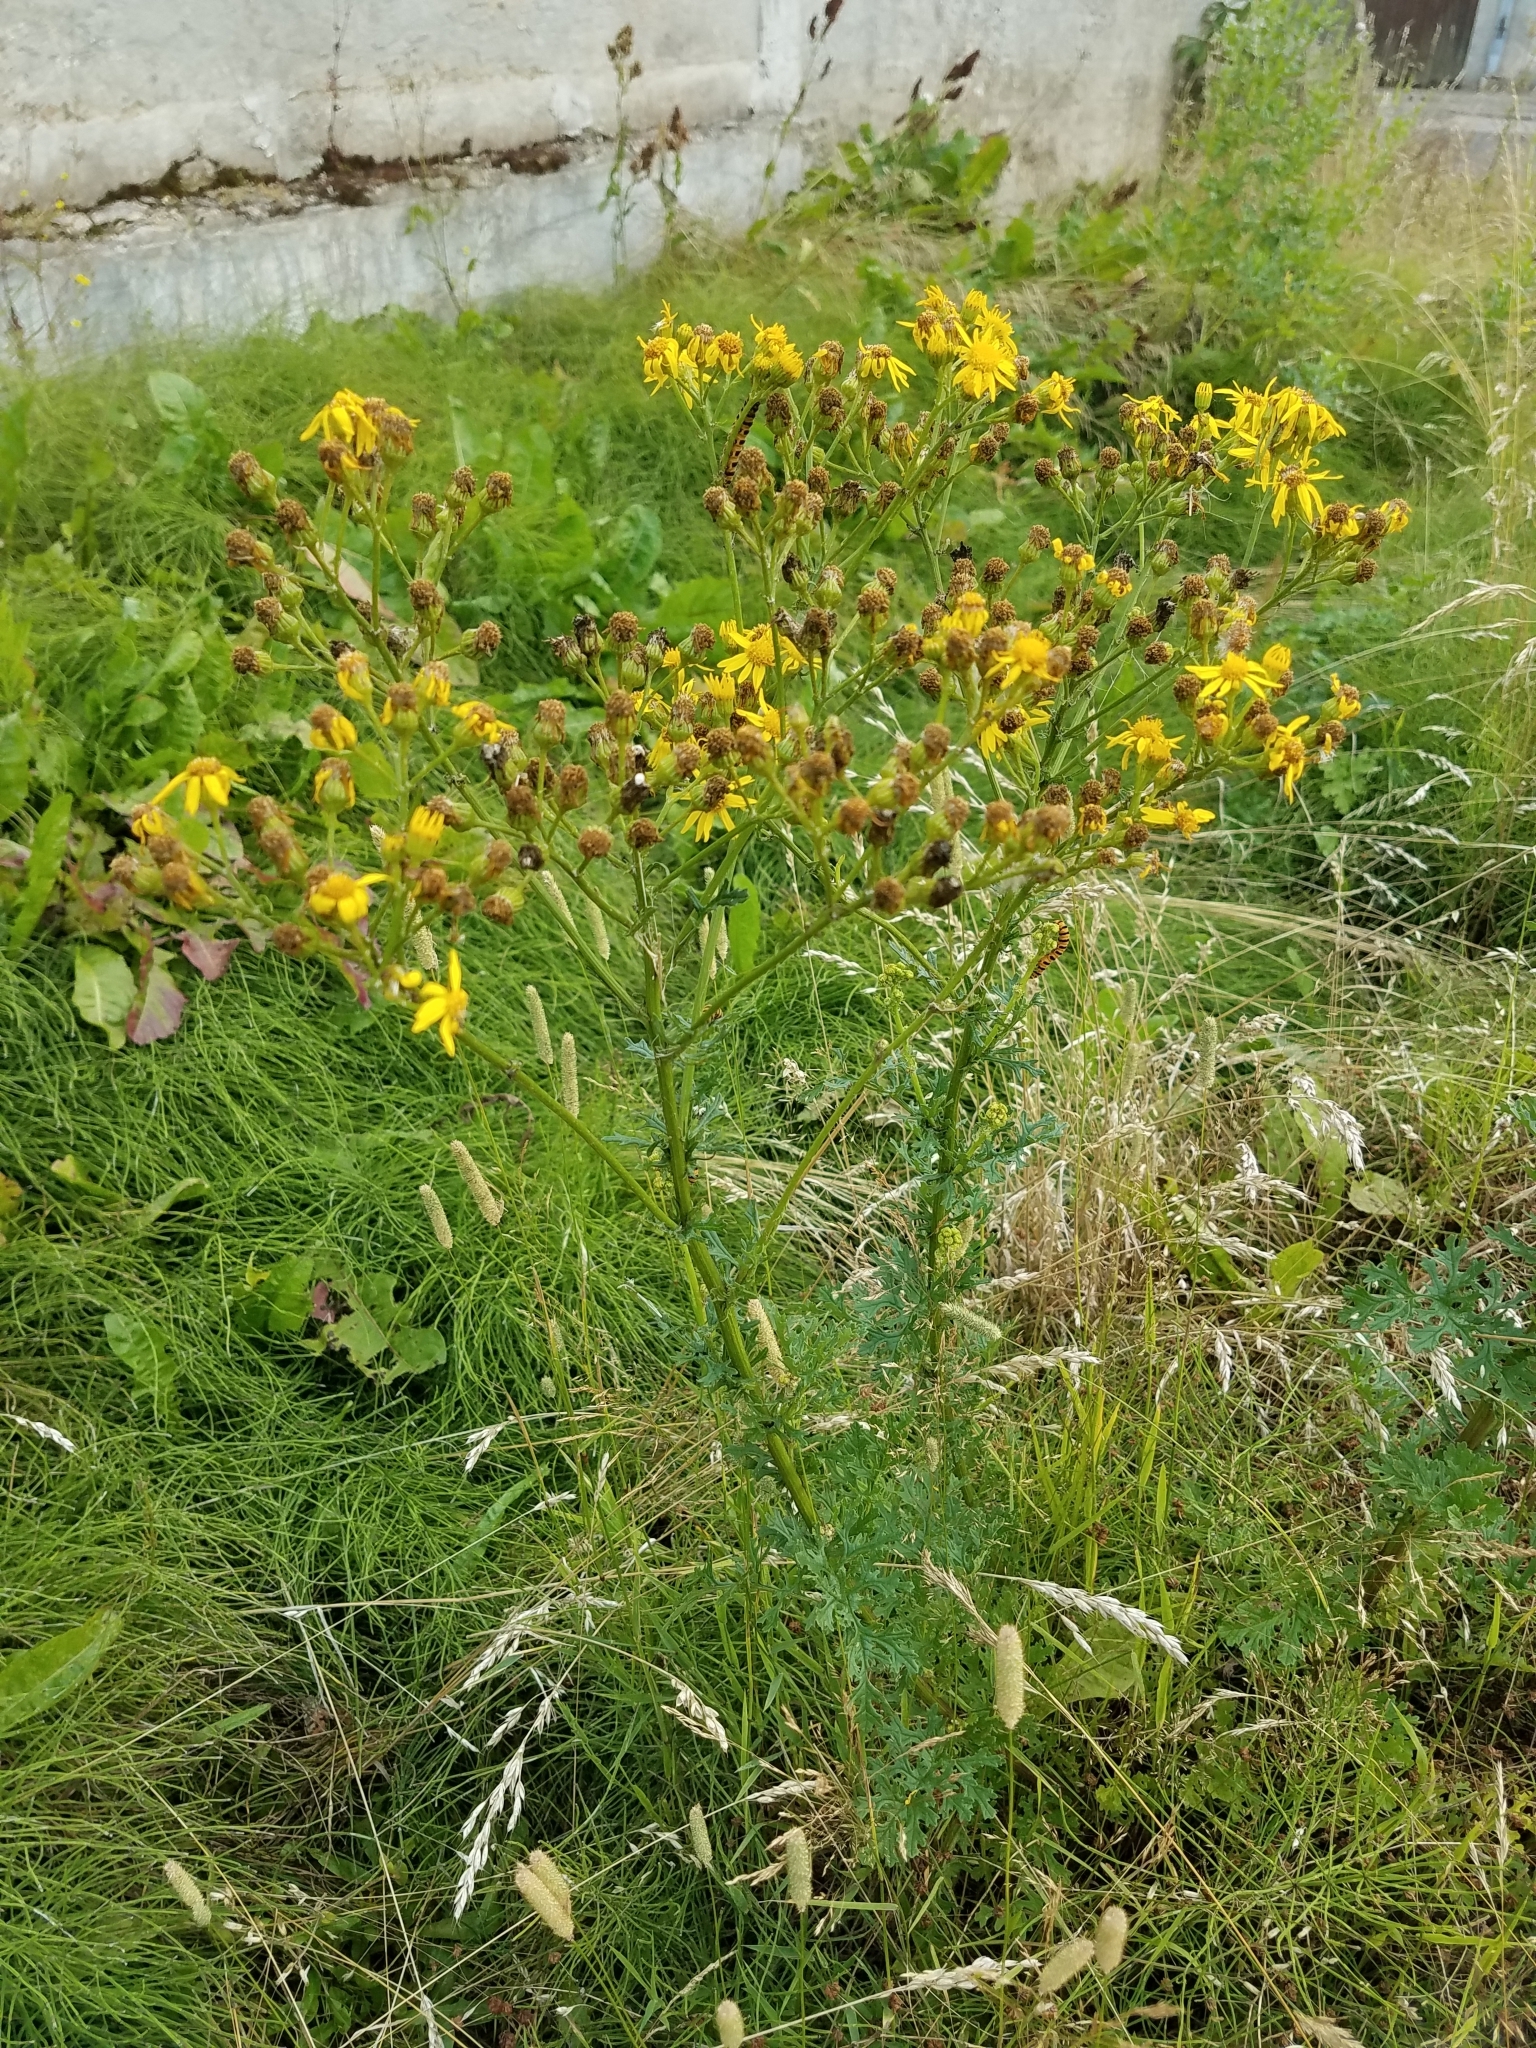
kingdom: Plantae
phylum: Tracheophyta
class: Magnoliopsida
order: Asterales
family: Asteraceae
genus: Jacobaea
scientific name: Jacobaea vulgaris
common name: Stinking willie
